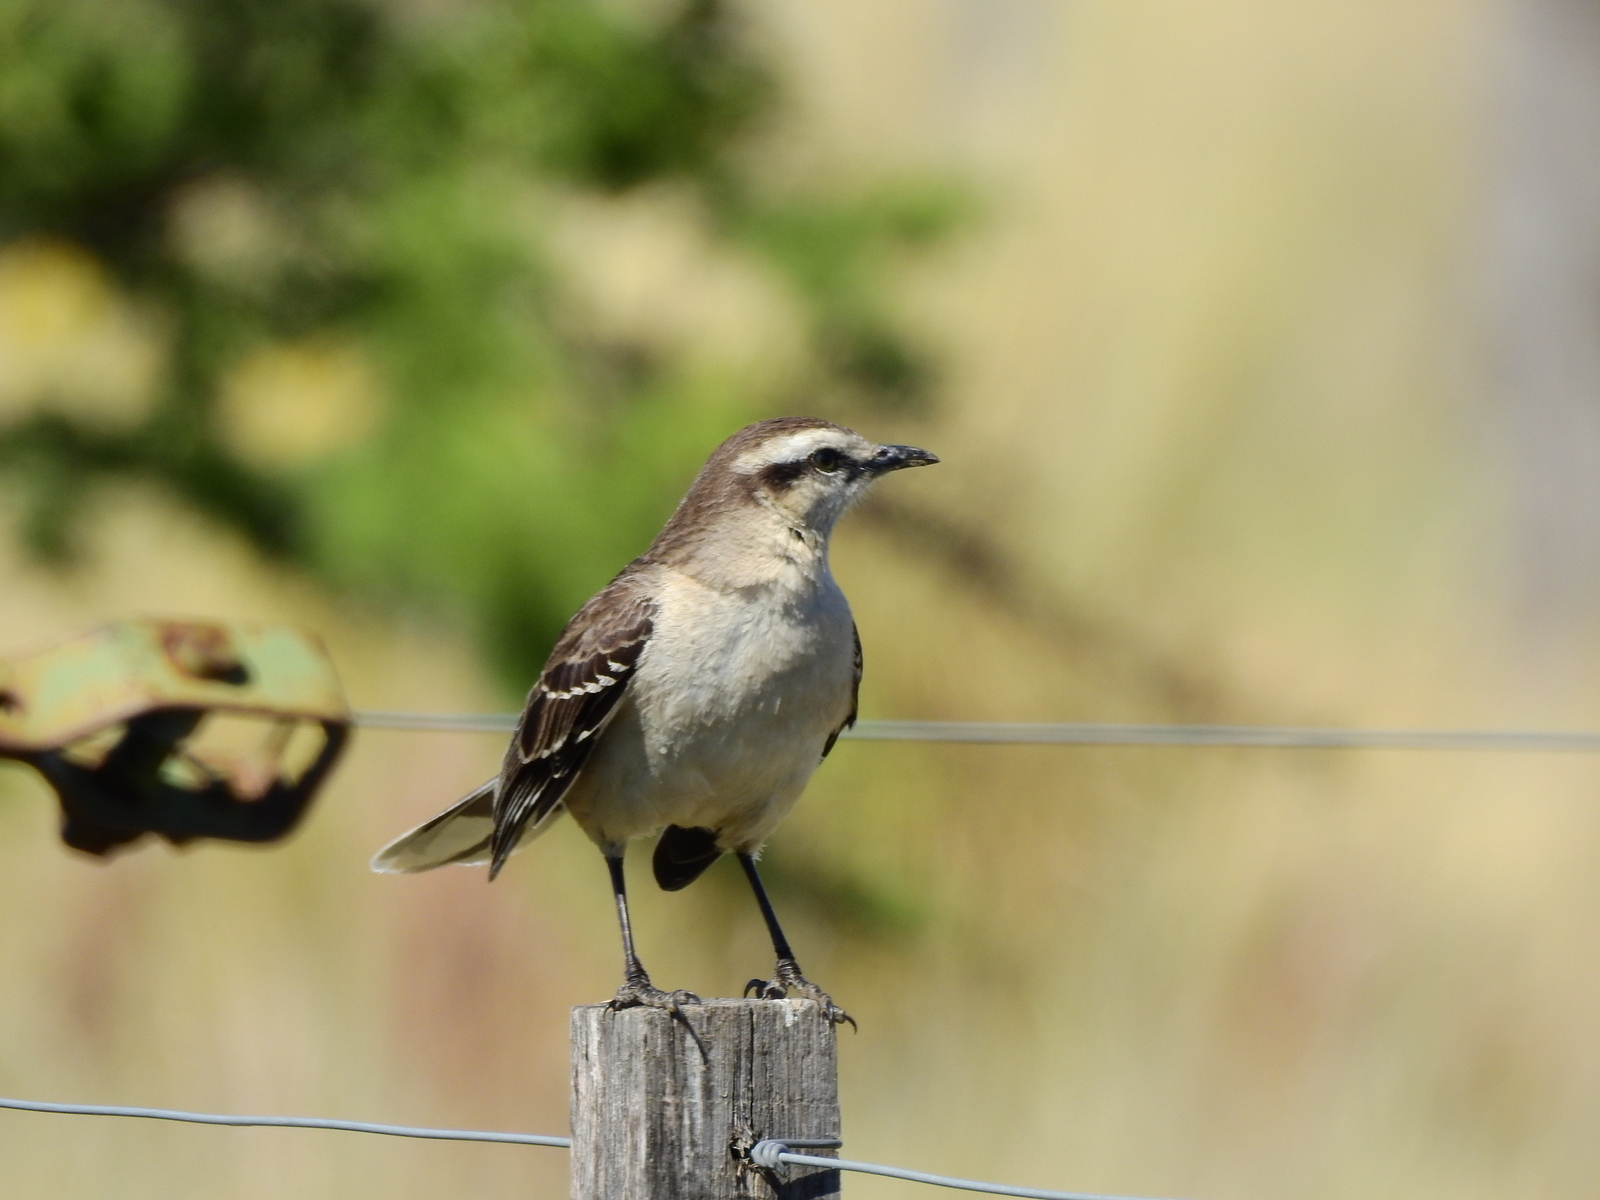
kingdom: Animalia
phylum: Chordata
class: Aves
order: Passeriformes
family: Mimidae
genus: Mimus
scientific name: Mimus saturninus
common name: Chalk-browed mockingbird
